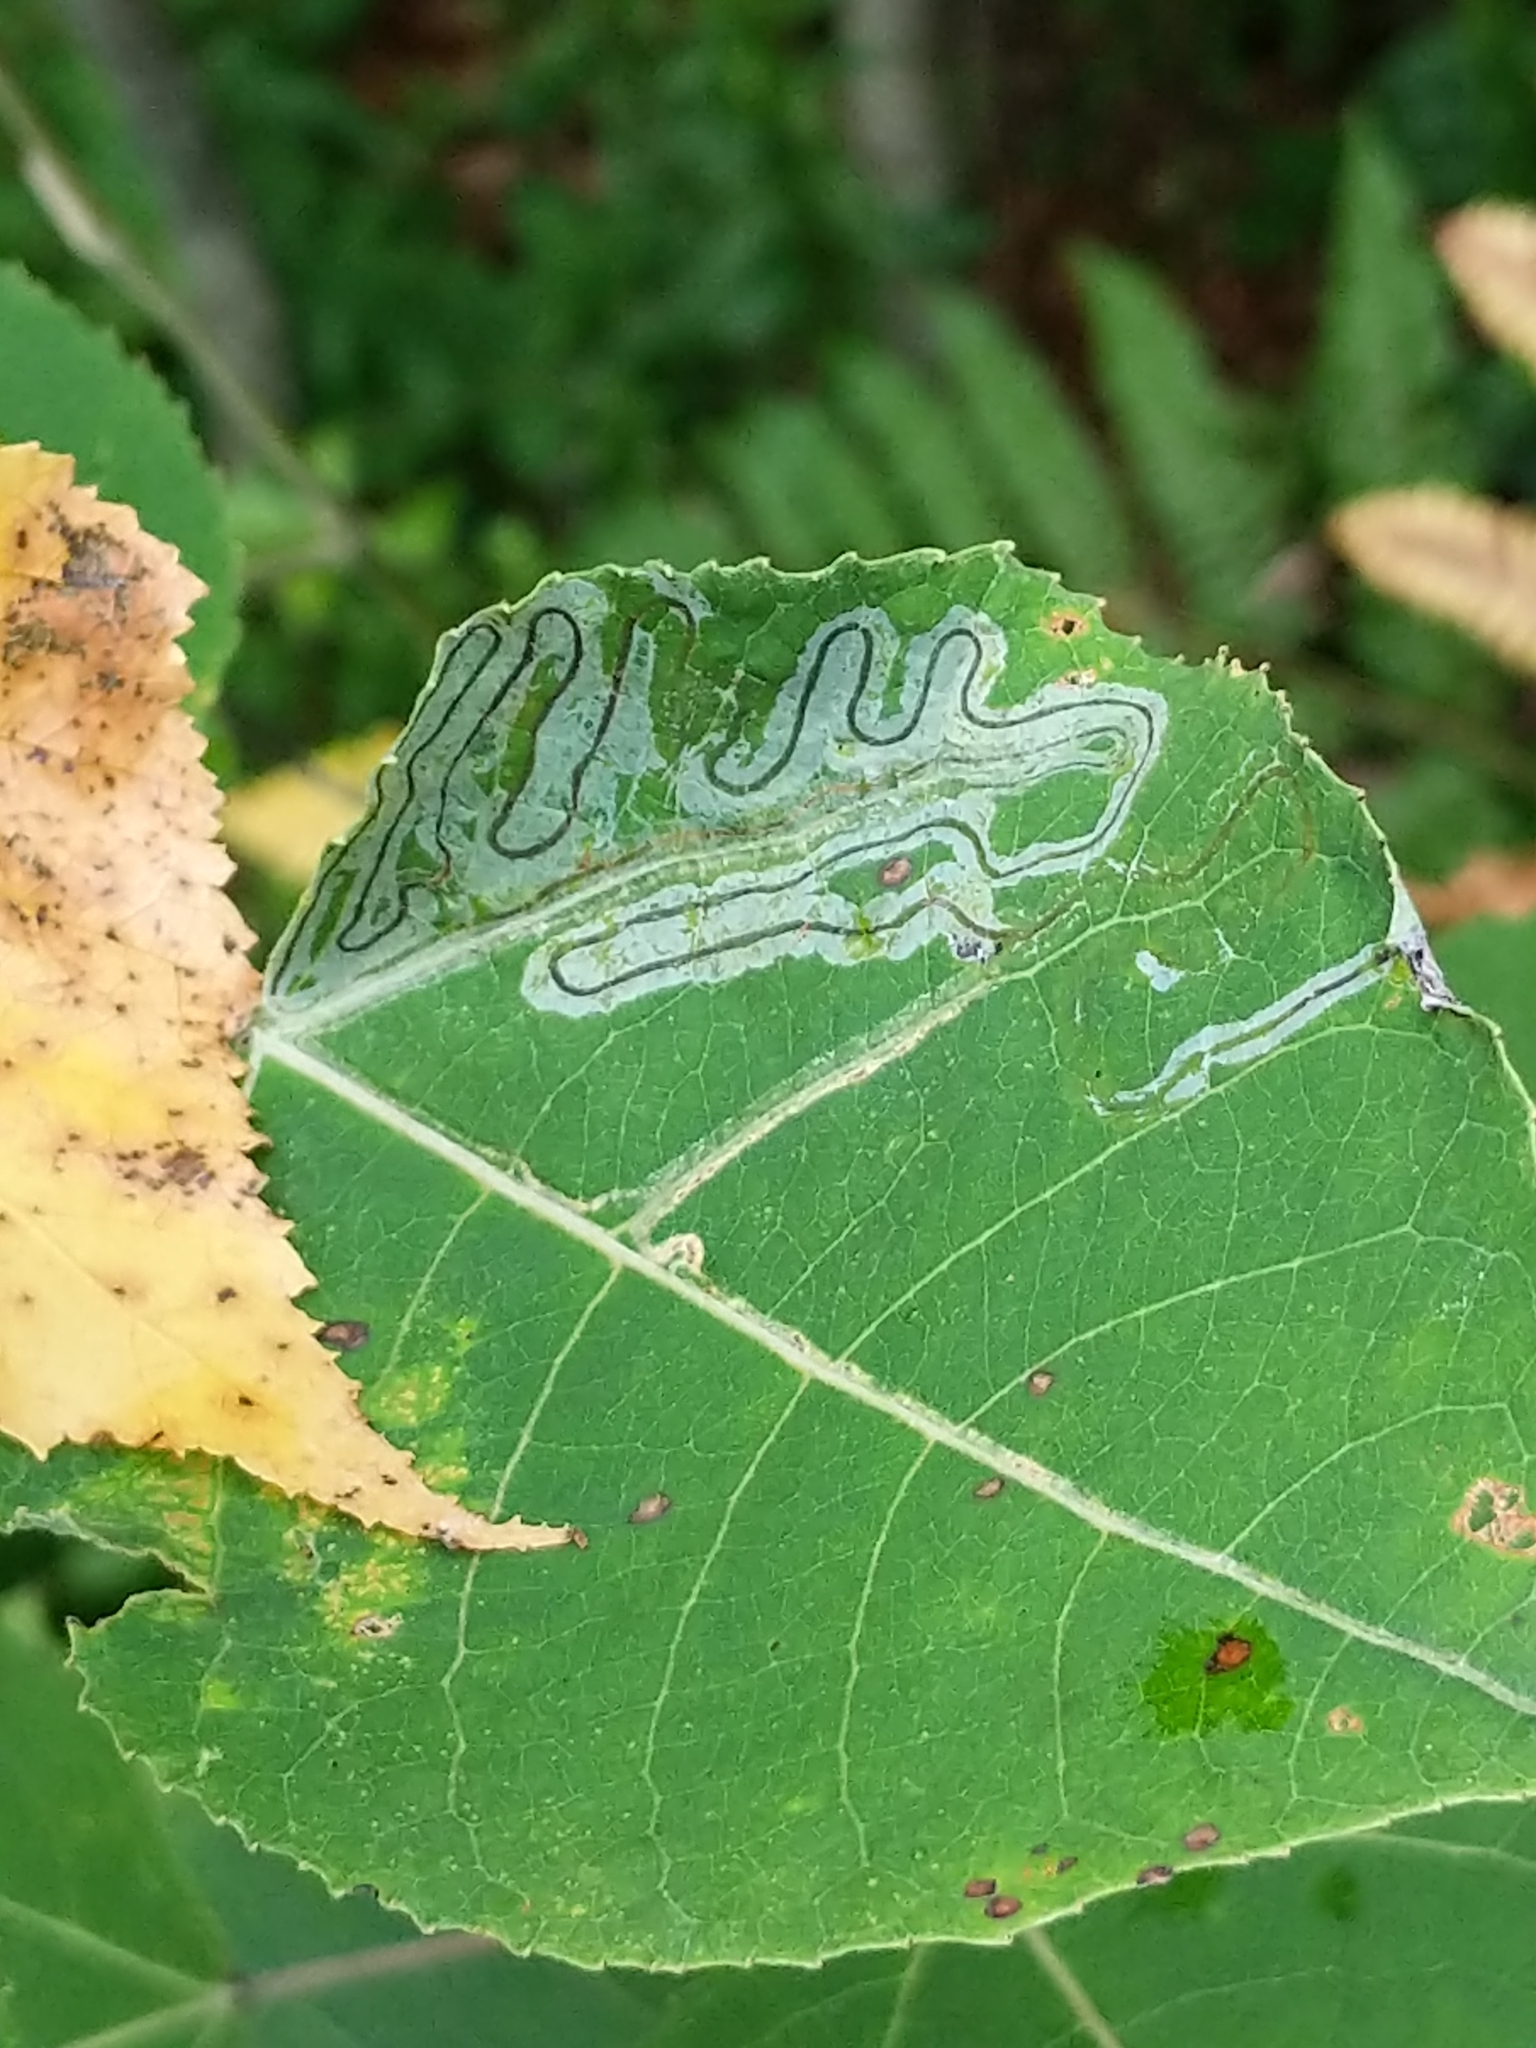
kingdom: Animalia
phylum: Arthropoda
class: Insecta
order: Lepidoptera
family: Gracillariidae
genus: Phyllocnistis
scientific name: Phyllocnistis populiella
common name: Aspen serpentine leafminer moth
